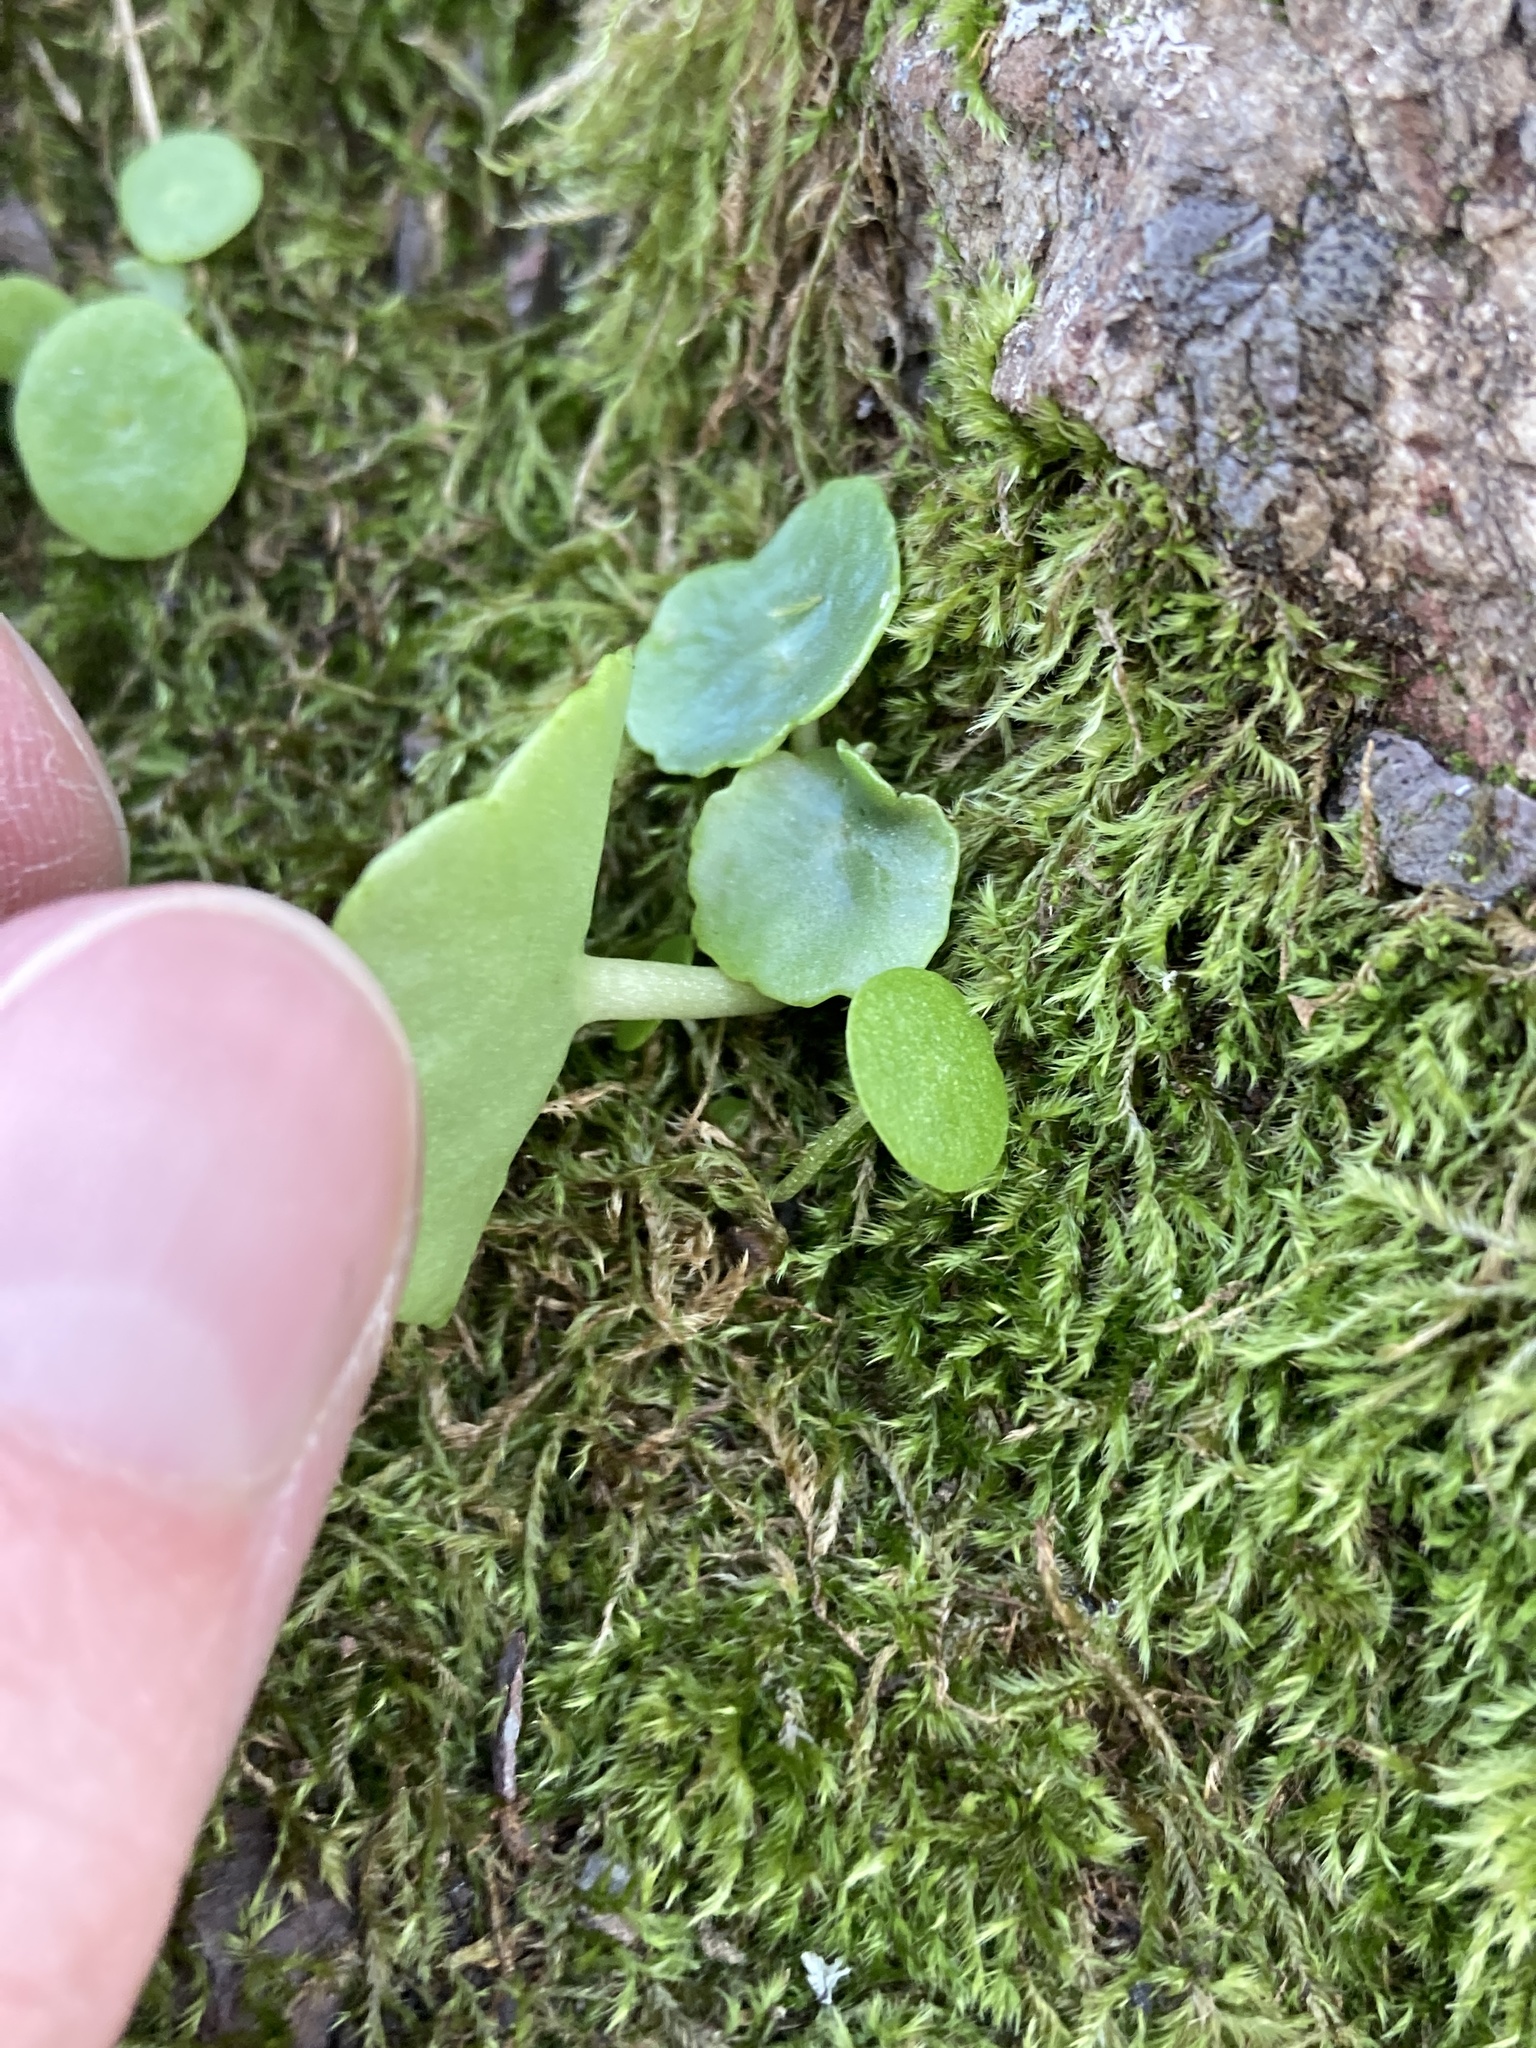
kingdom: Plantae
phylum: Tracheophyta
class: Magnoliopsida
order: Saxifragales
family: Crassulaceae
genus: Umbilicus
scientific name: Umbilicus rupestris
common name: Navelwort
